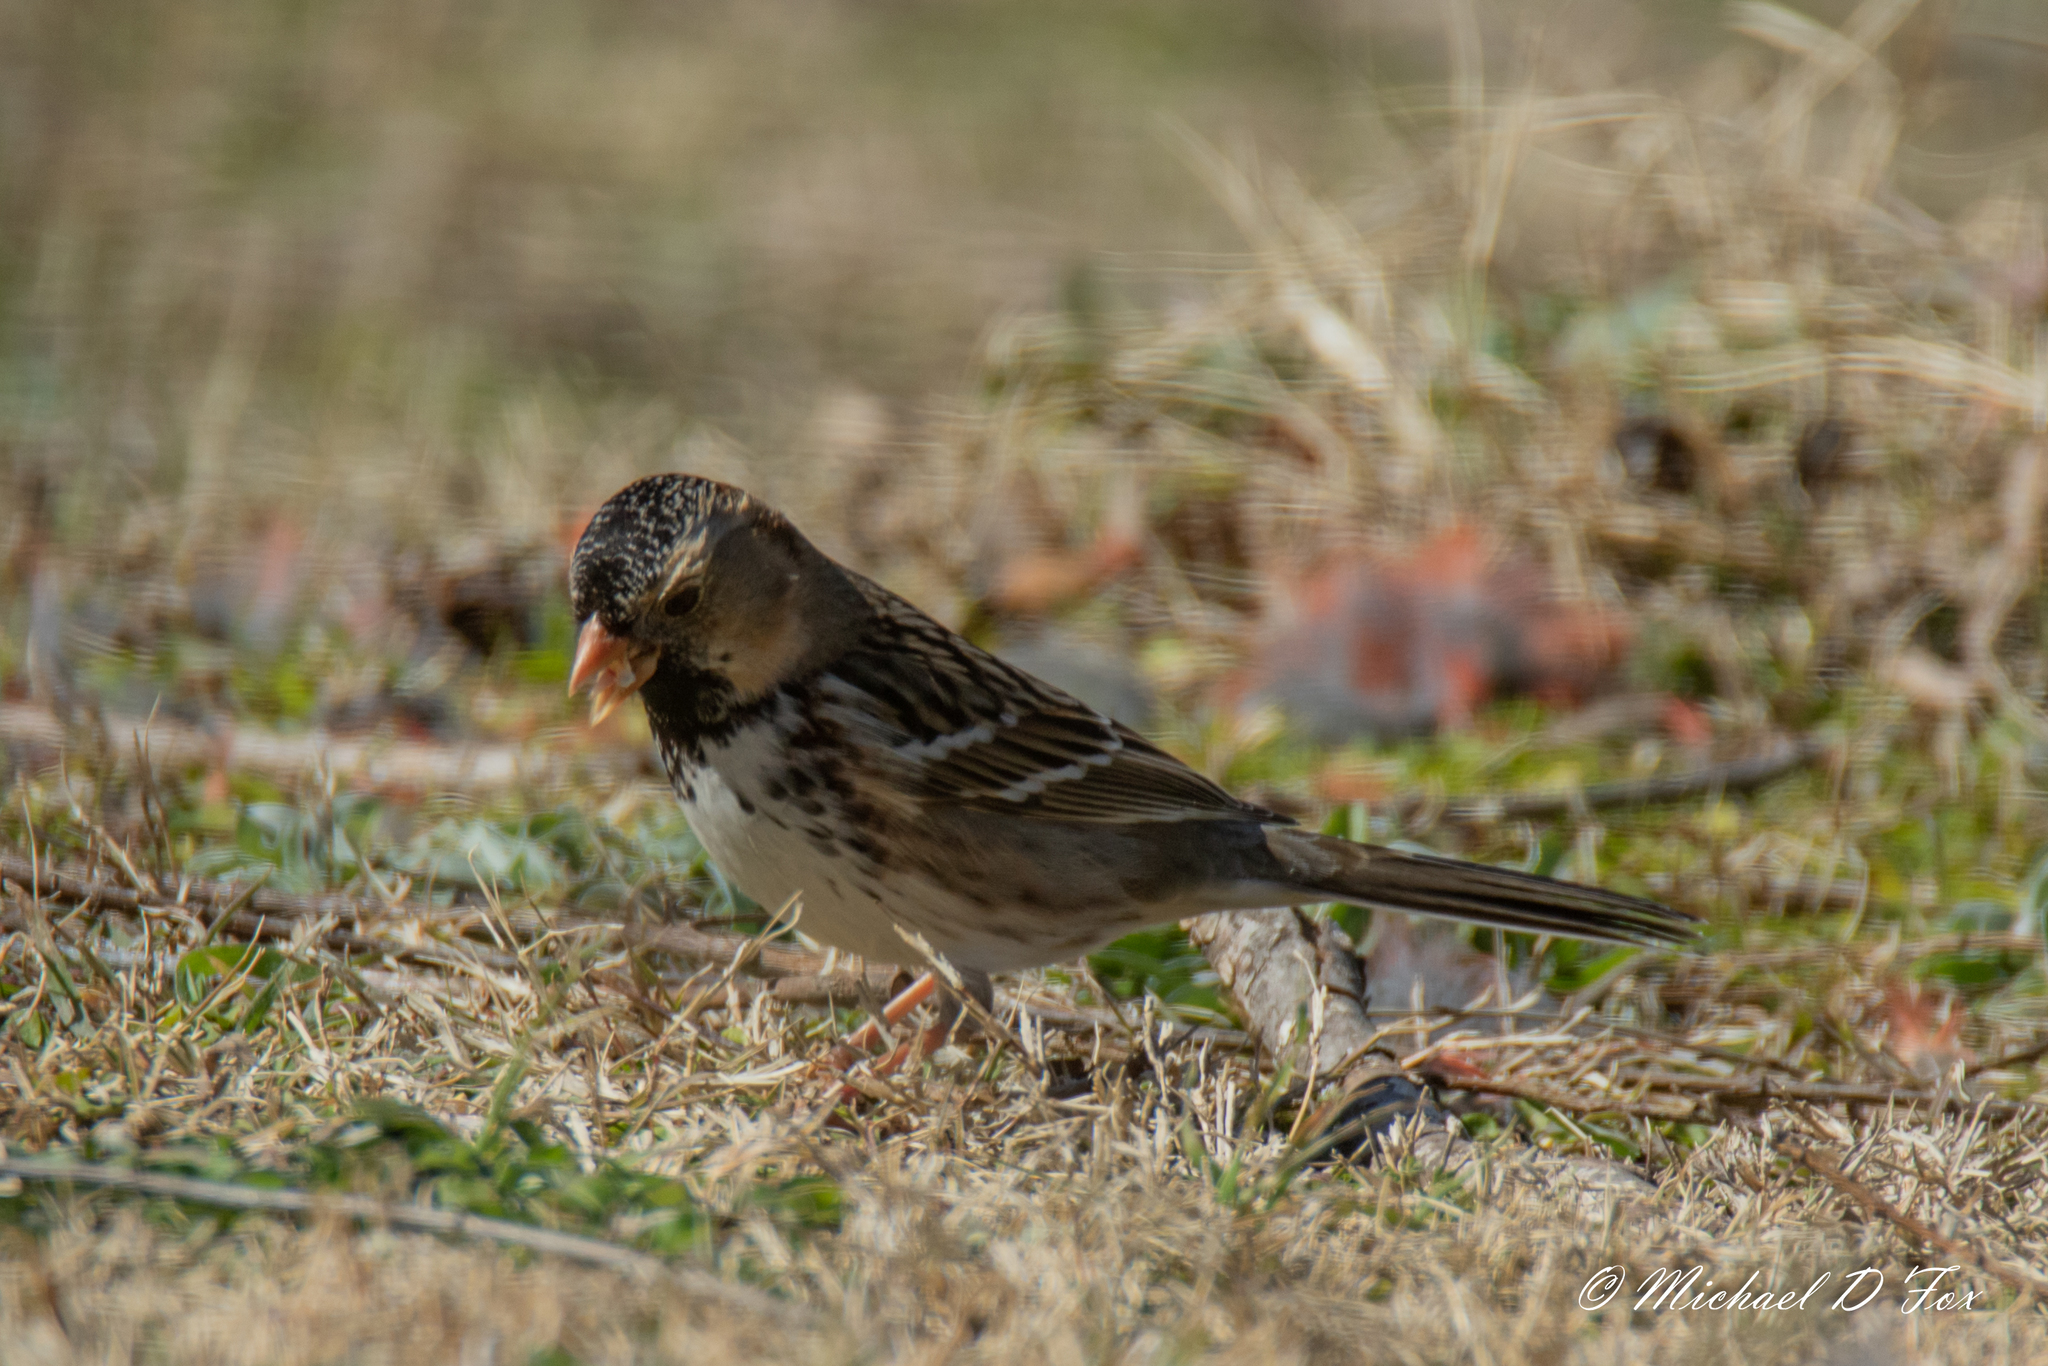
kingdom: Animalia
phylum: Chordata
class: Aves
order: Passeriformes
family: Passerellidae
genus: Zonotrichia
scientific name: Zonotrichia querula
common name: Harris's sparrow
